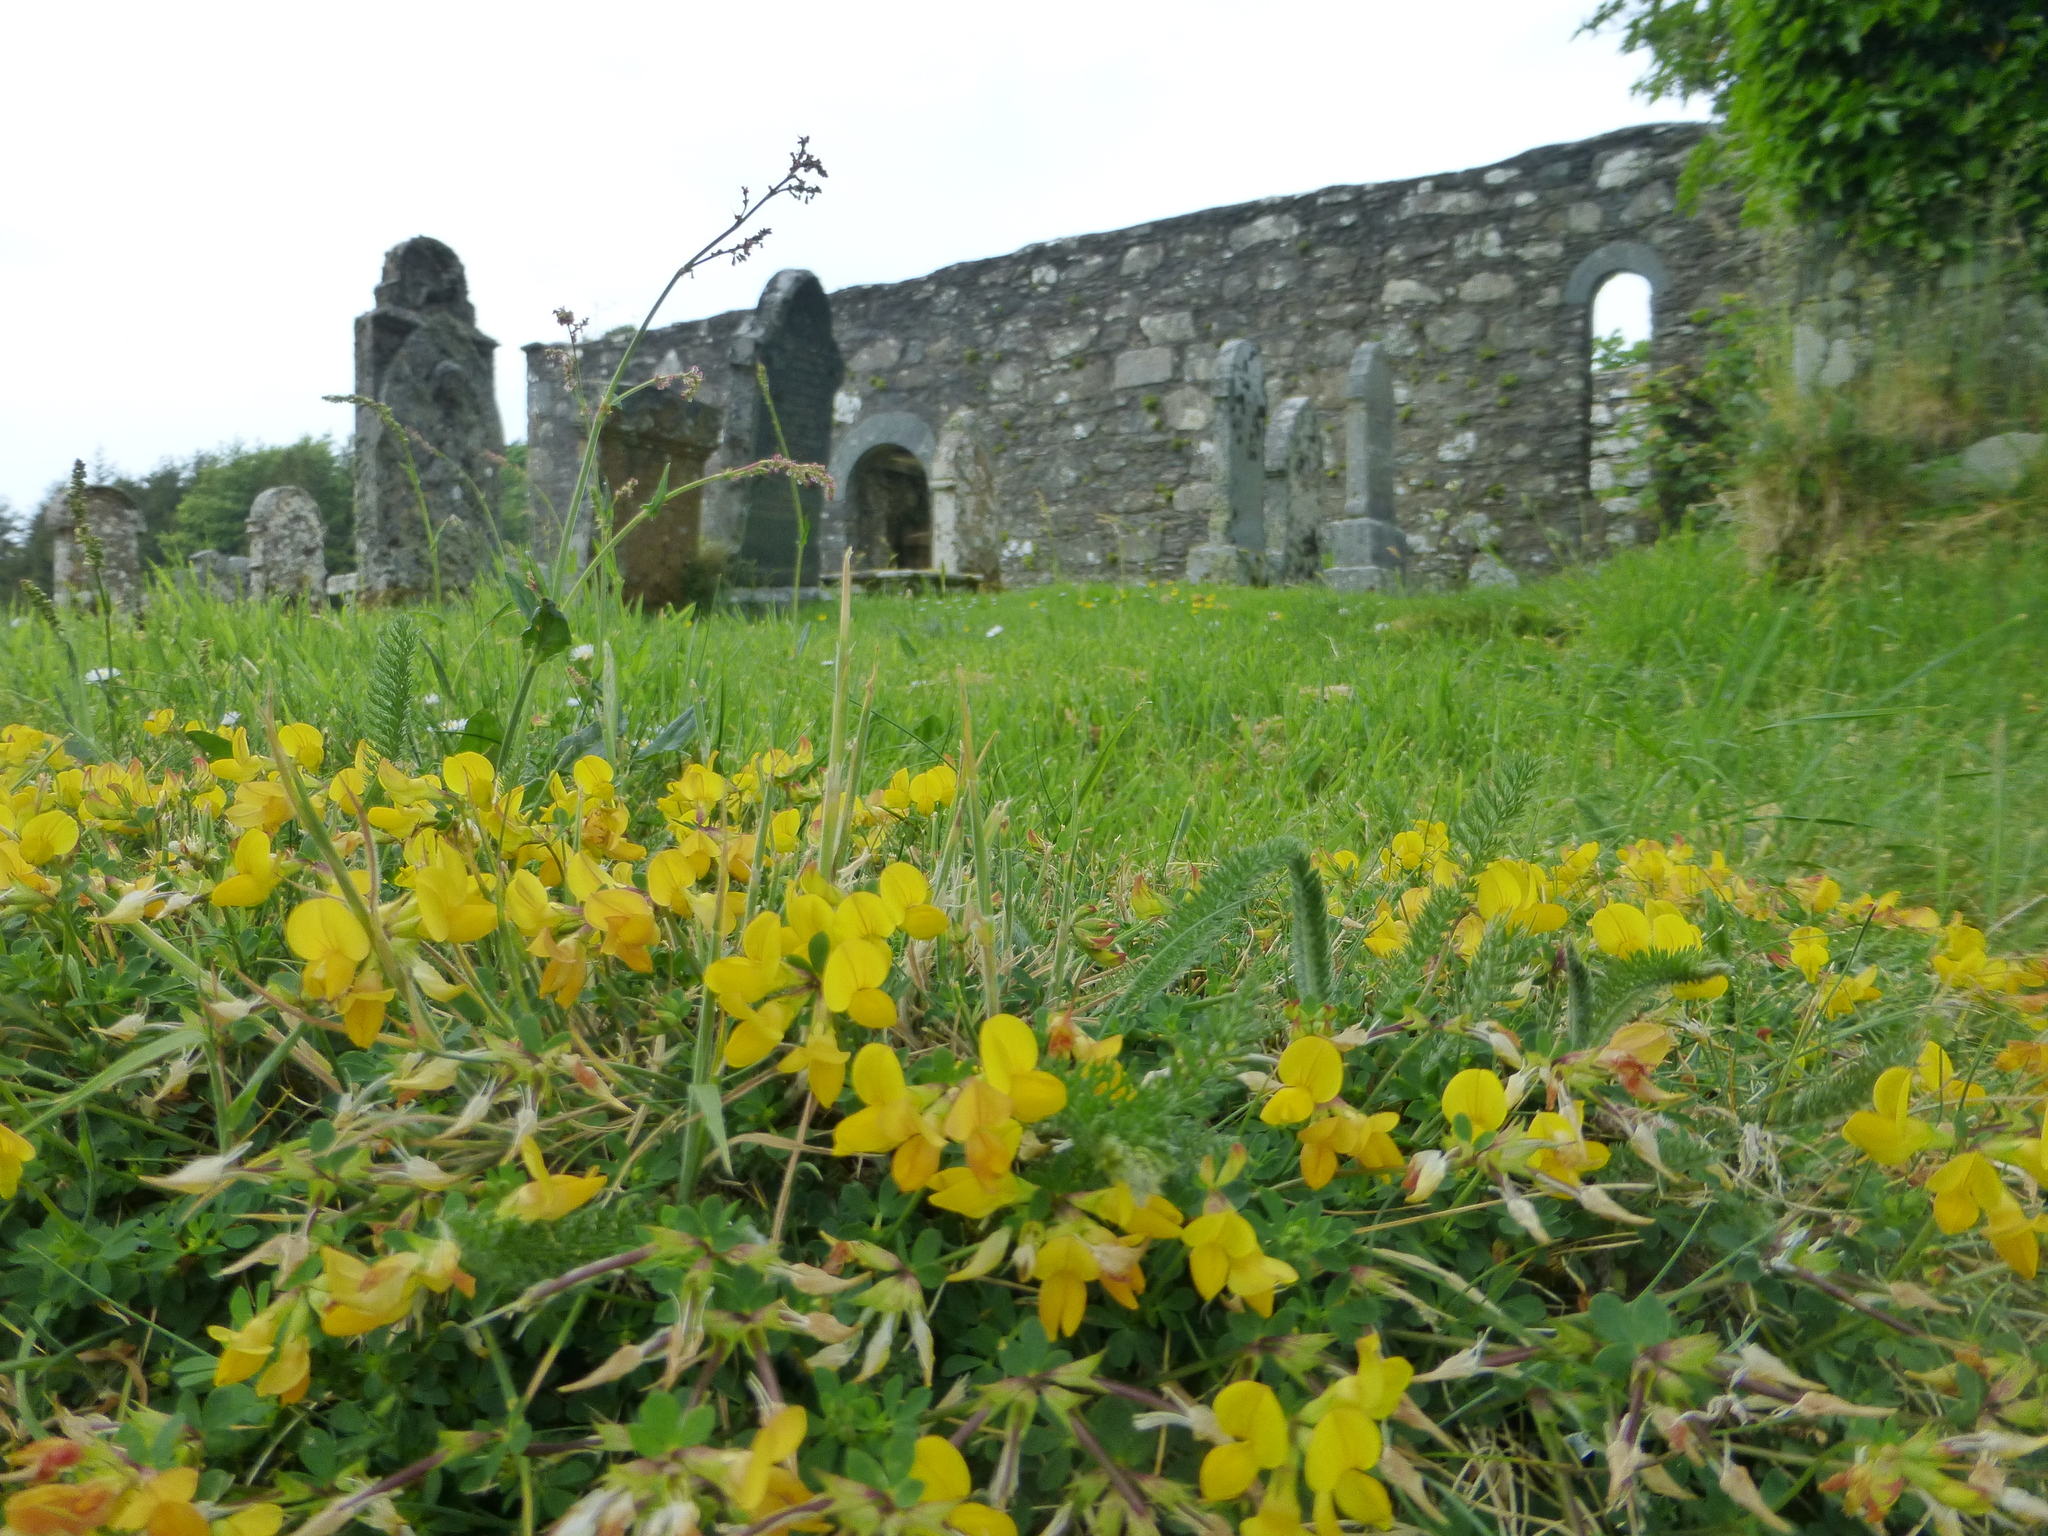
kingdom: Plantae
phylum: Tracheophyta
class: Magnoliopsida
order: Fabales
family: Fabaceae
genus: Lotus
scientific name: Lotus corniculatus
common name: Common bird's-foot-trefoil
